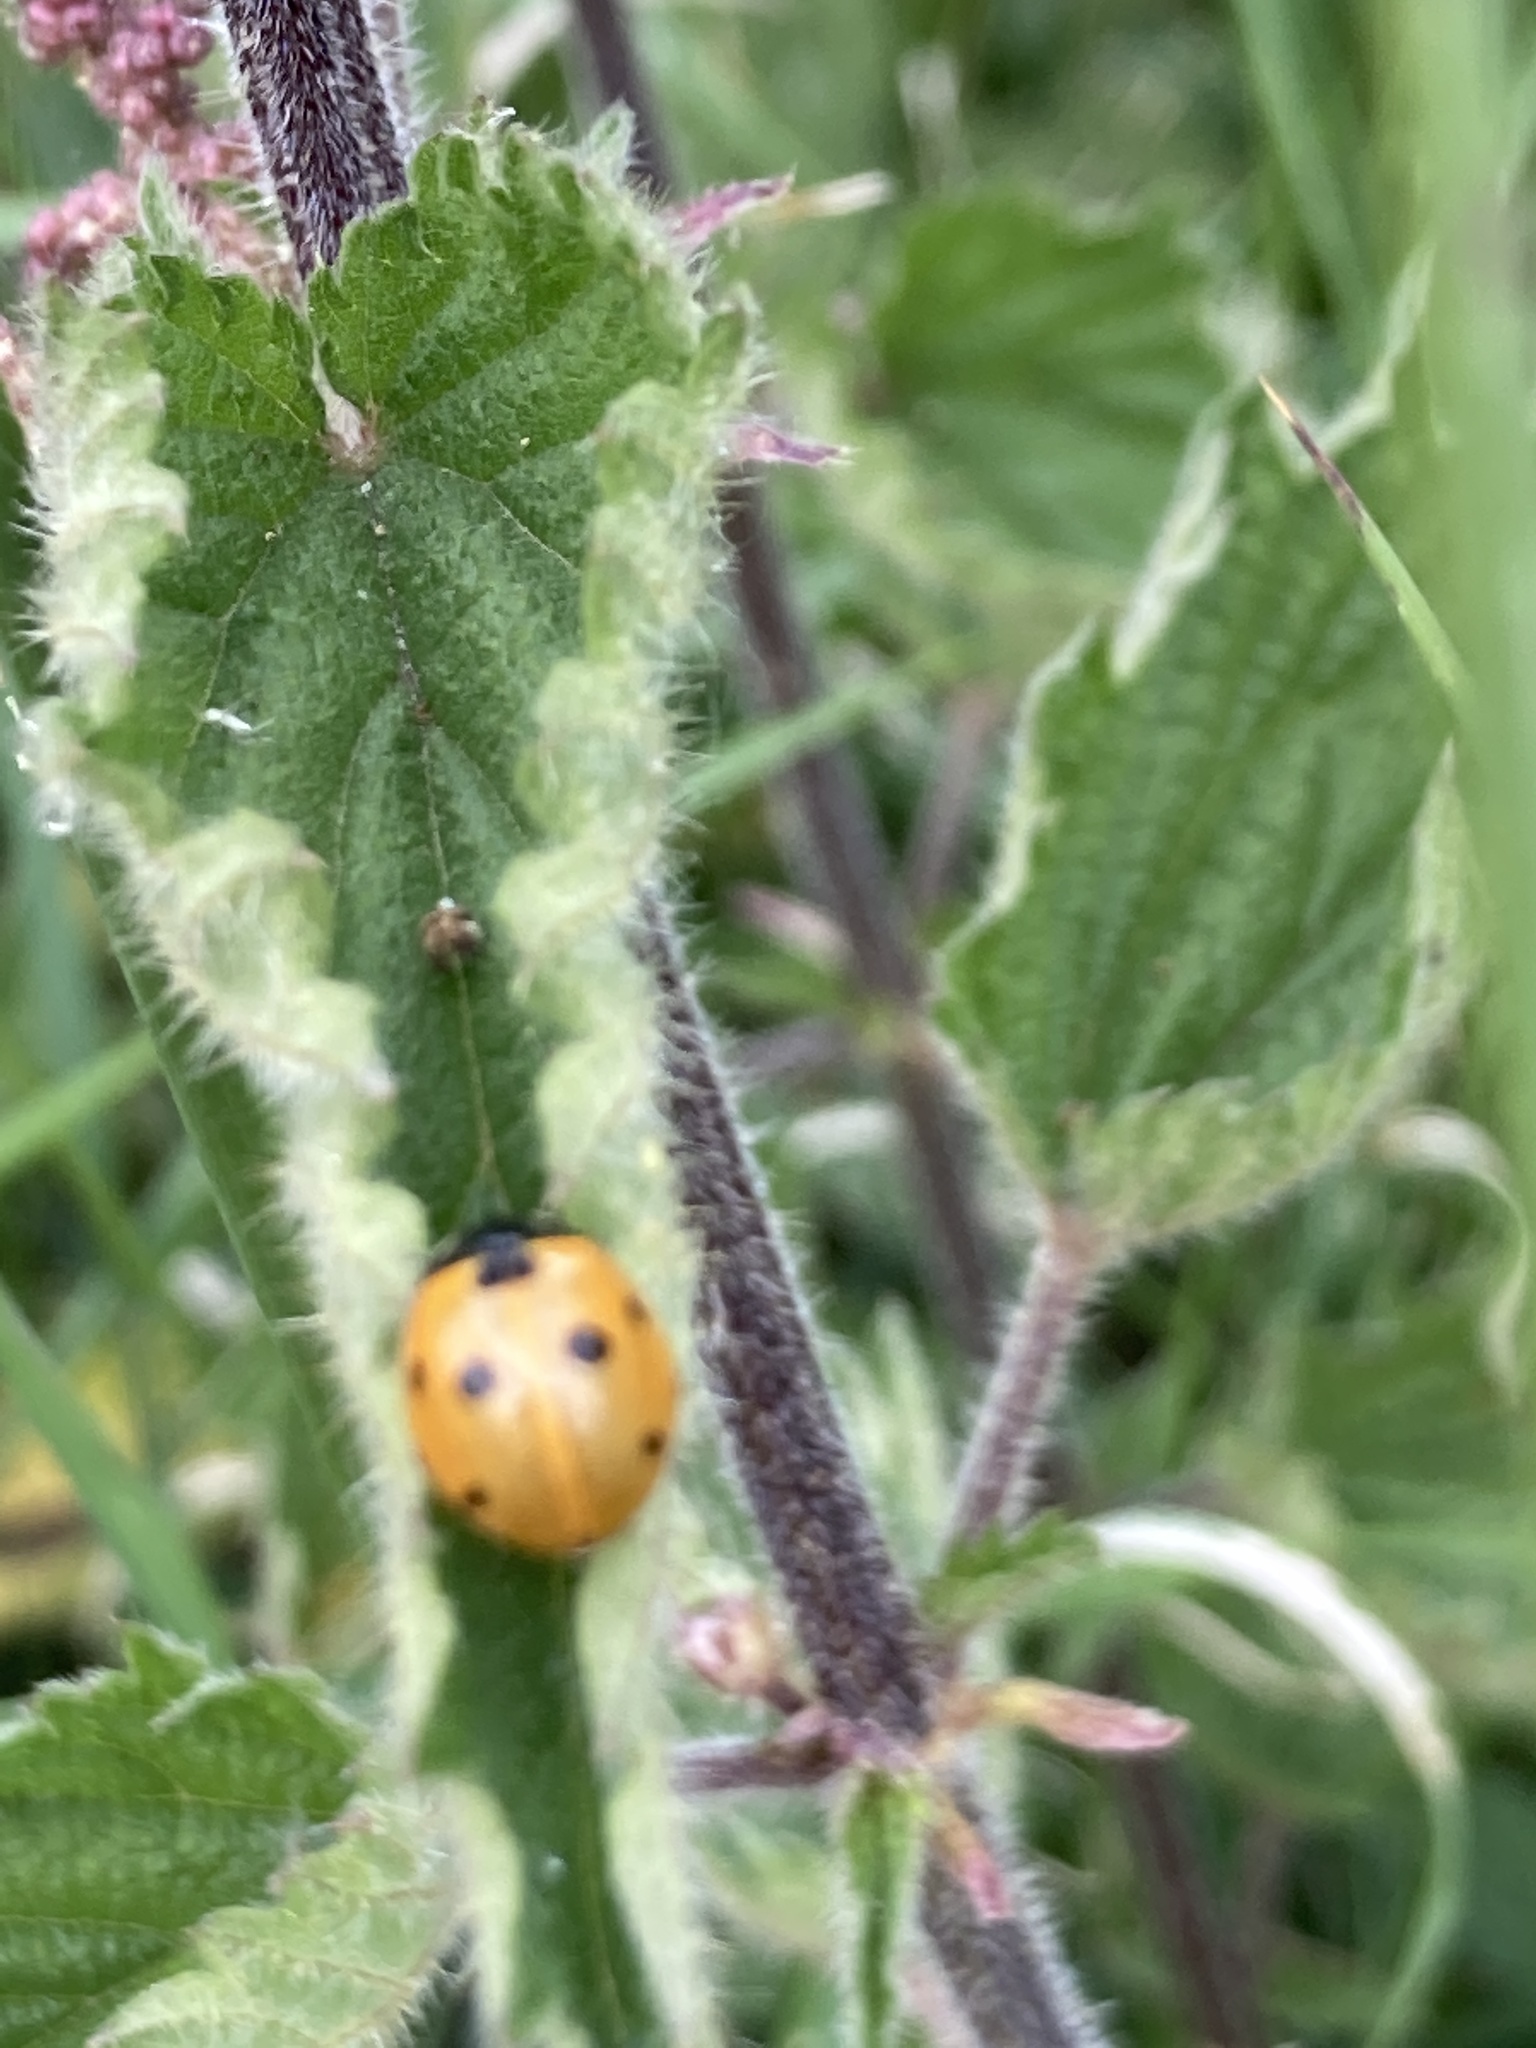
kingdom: Animalia
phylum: Arthropoda
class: Insecta
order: Coleoptera
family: Coccinellidae
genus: Coccinella
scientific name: Coccinella septempunctata
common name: Sevenspotted lady beetle
